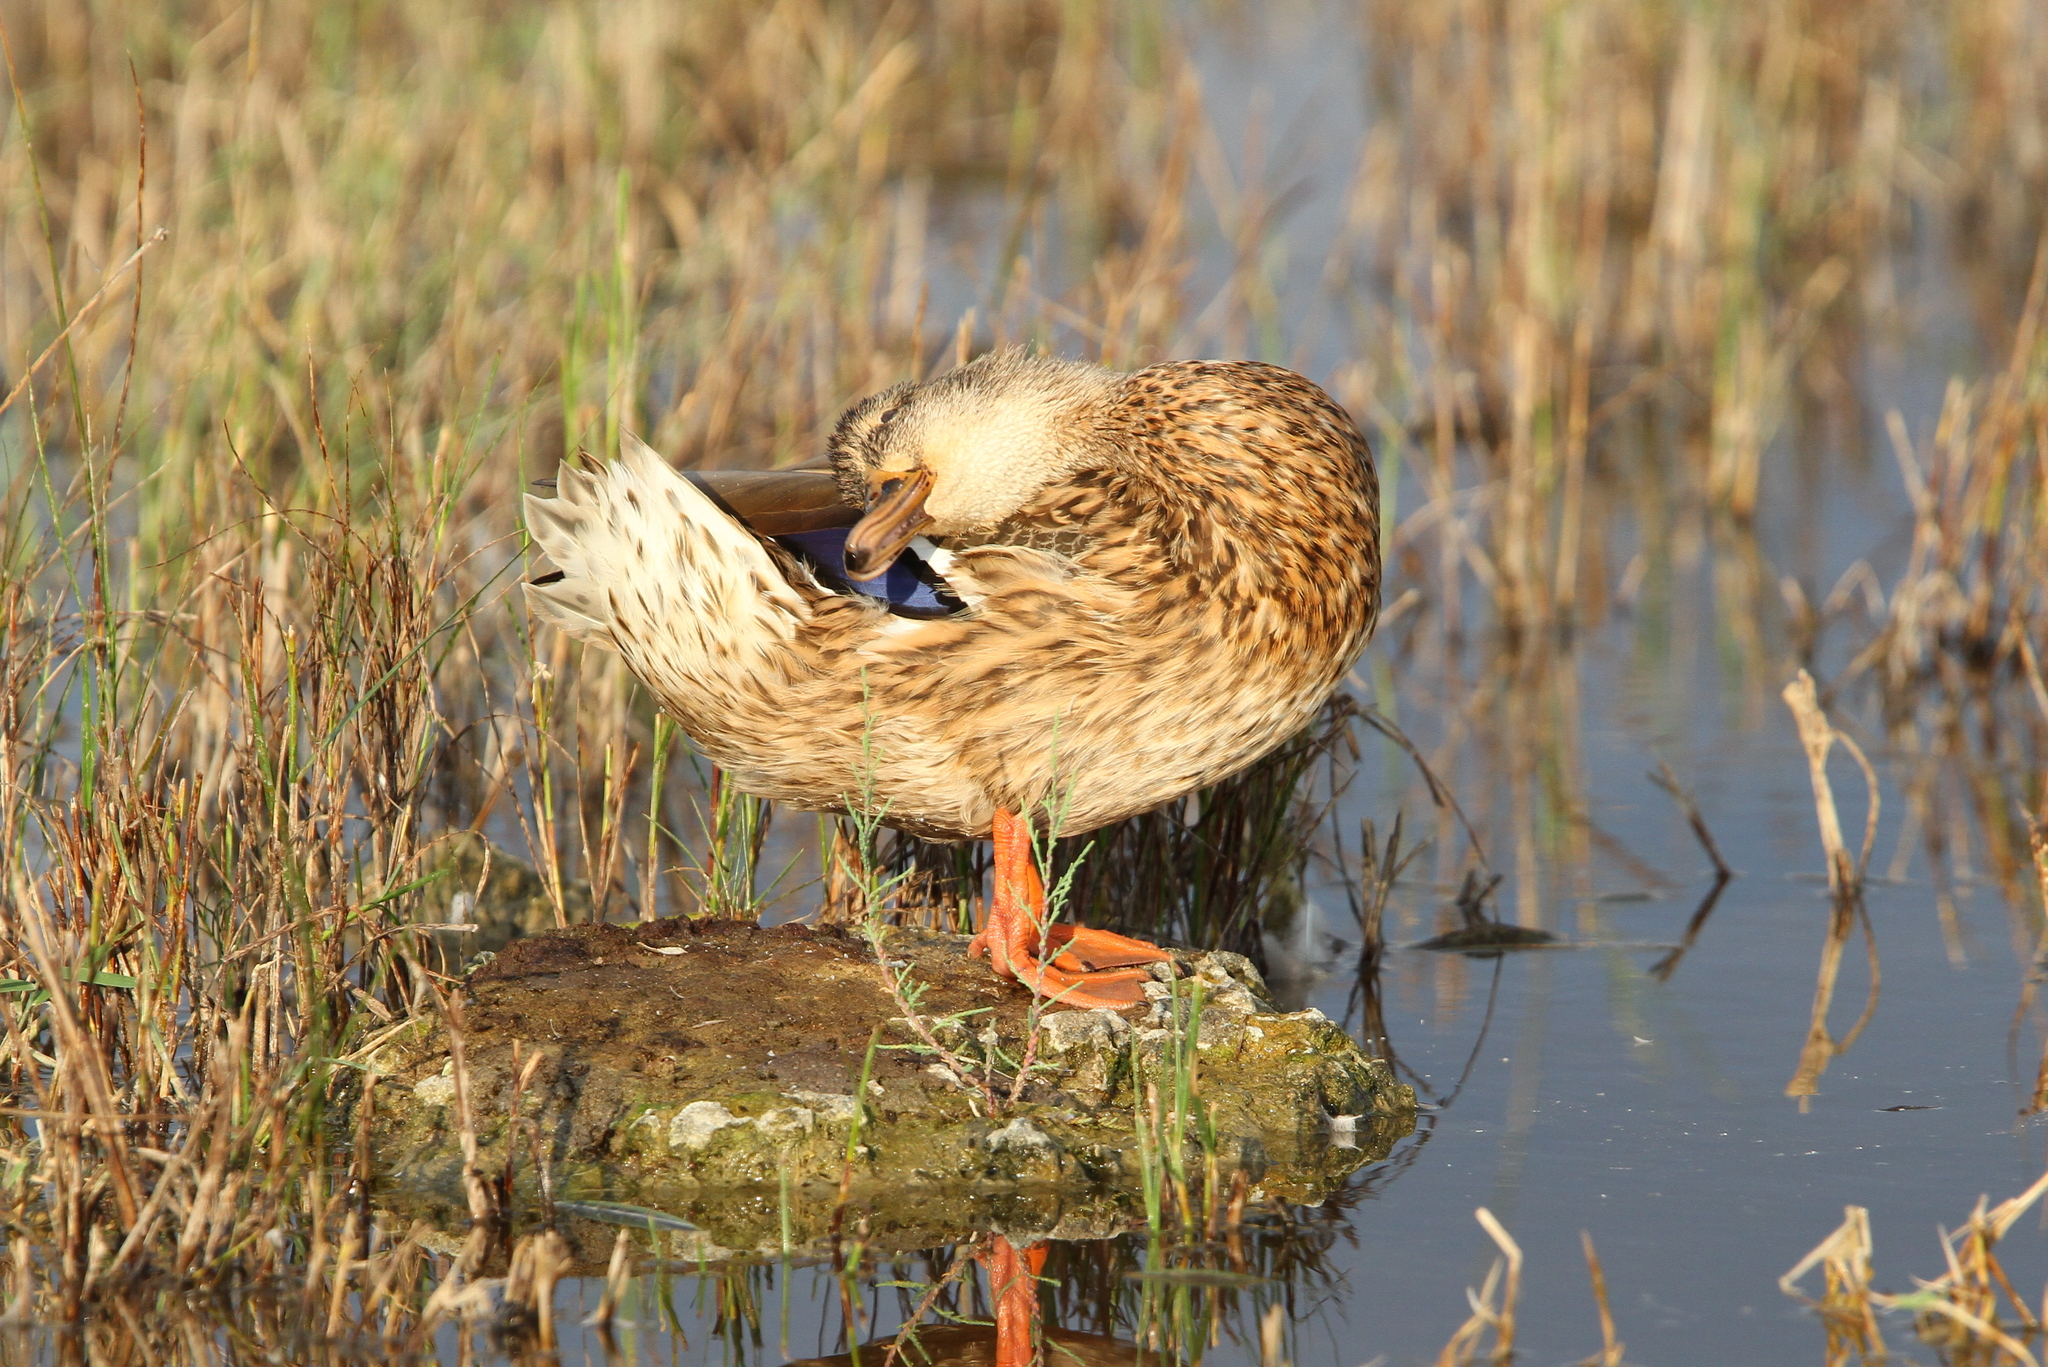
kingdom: Animalia
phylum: Chordata
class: Aves
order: Anseriformes
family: Anatidae
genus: Anas
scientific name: Anas platyrhynchos
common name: Mallard
